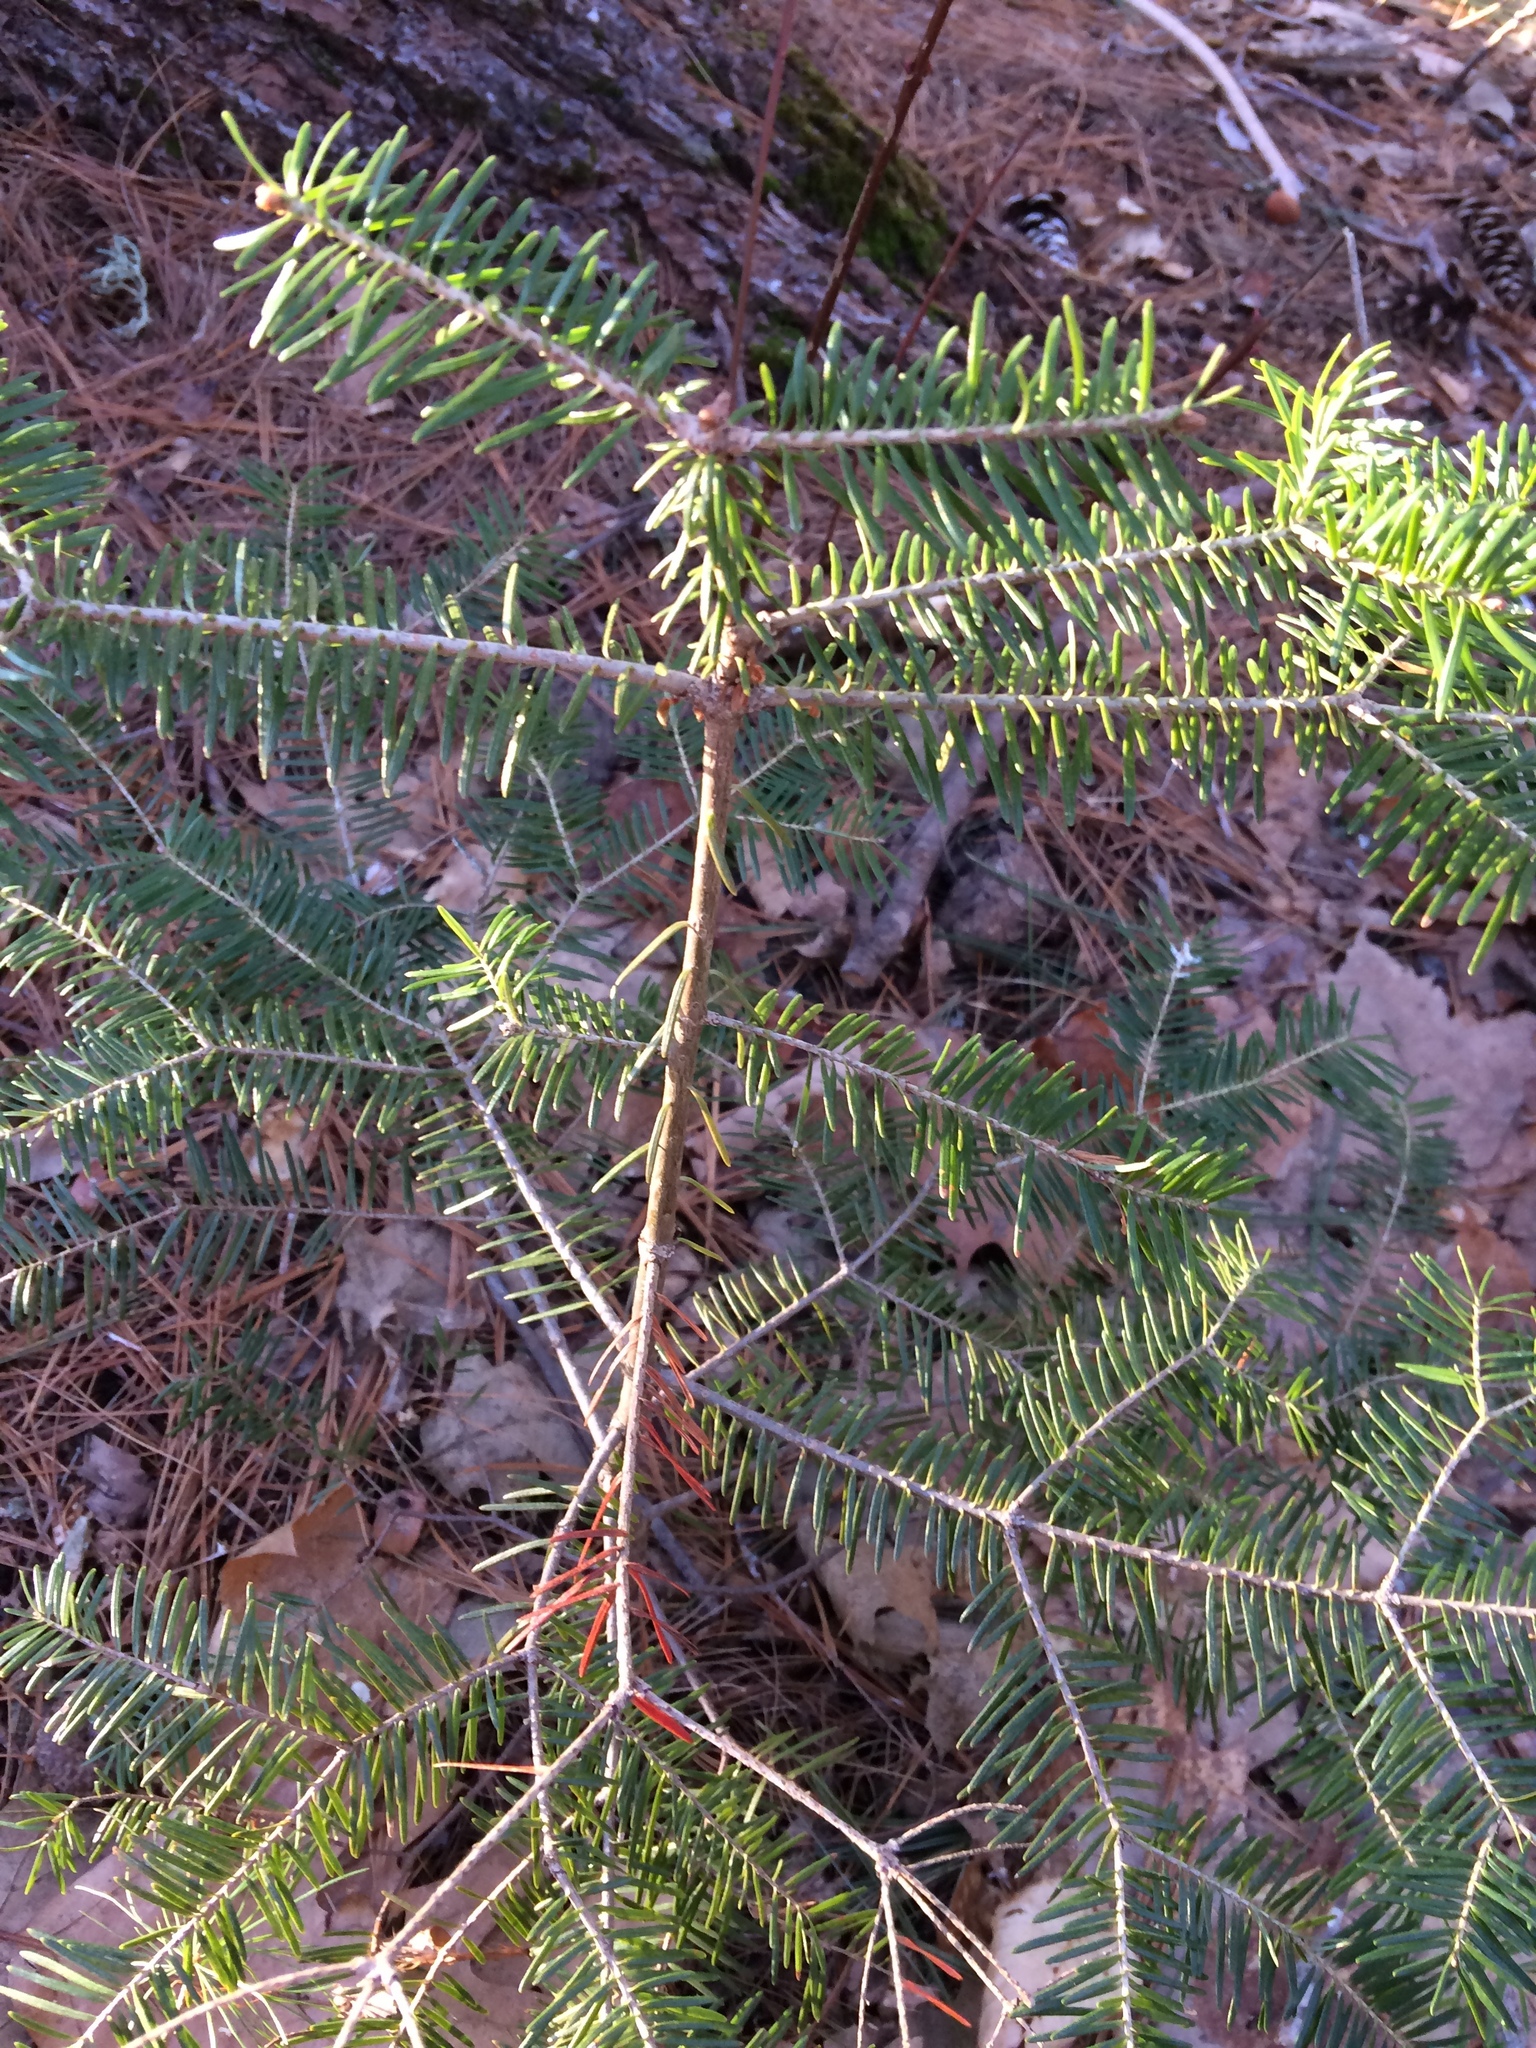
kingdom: Plantae
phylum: Tracheophyta
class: Pinopsida
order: Pinales
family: Pinaceae
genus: Abies
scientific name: Abies balsamea
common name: Balsam fir
